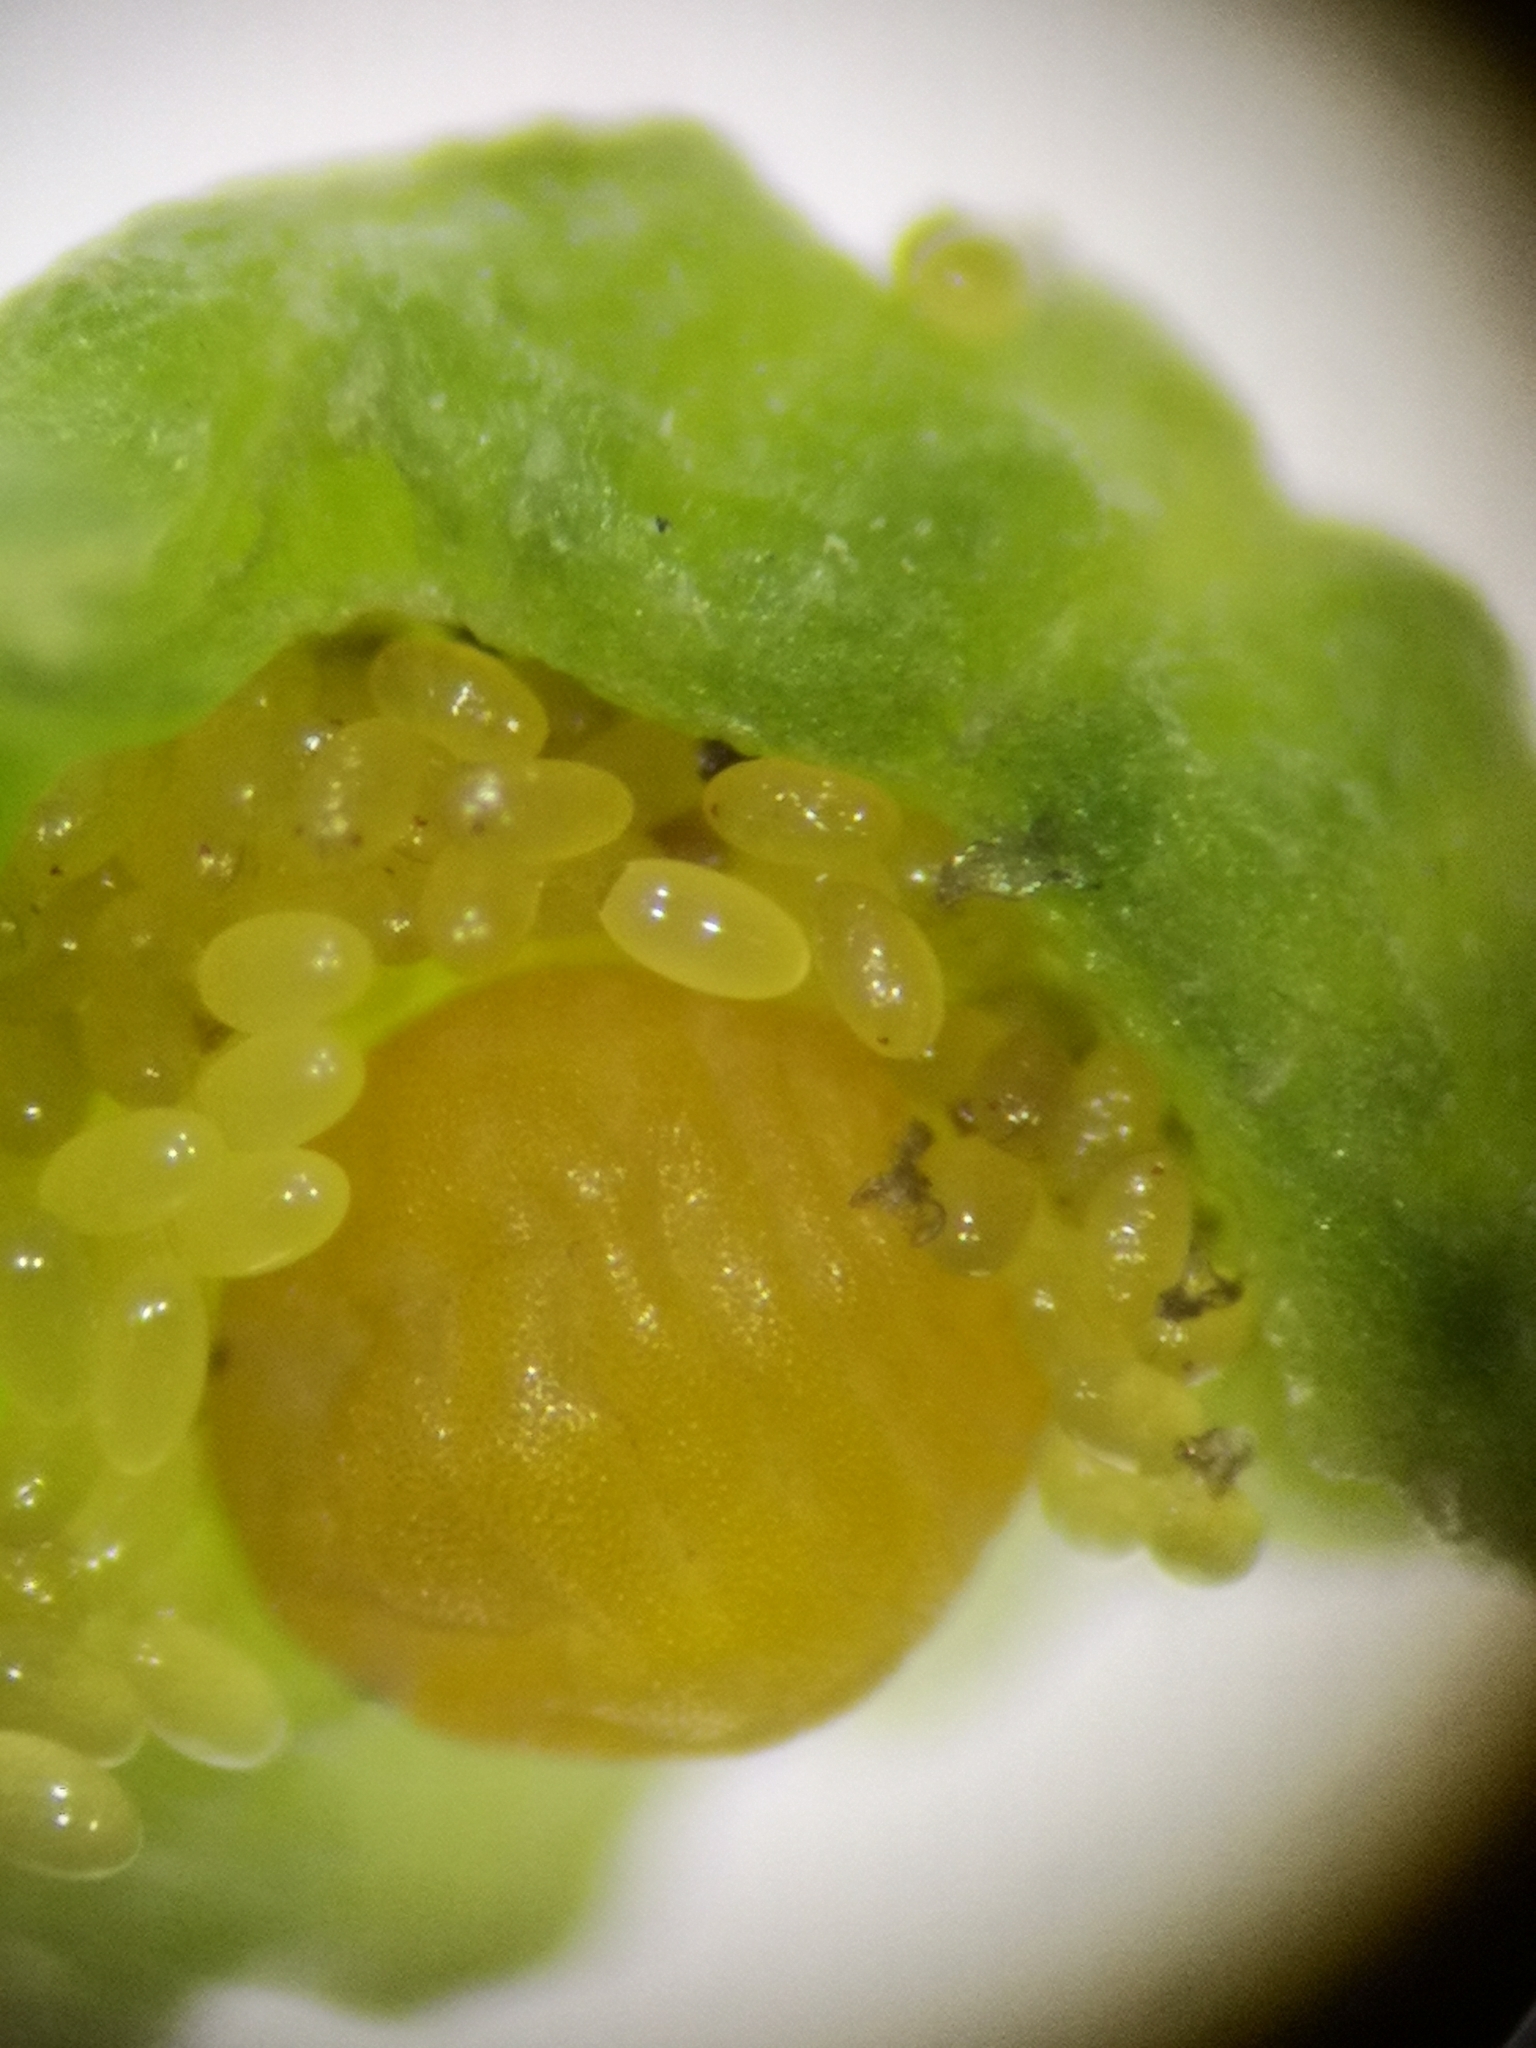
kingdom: Animalia
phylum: Arthropoda
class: Insecta
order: Hemiptera
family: Phylloxeridae
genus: Daktulosphaira
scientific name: Daktulosphaira vitifoliae
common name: Grape phylloxera
